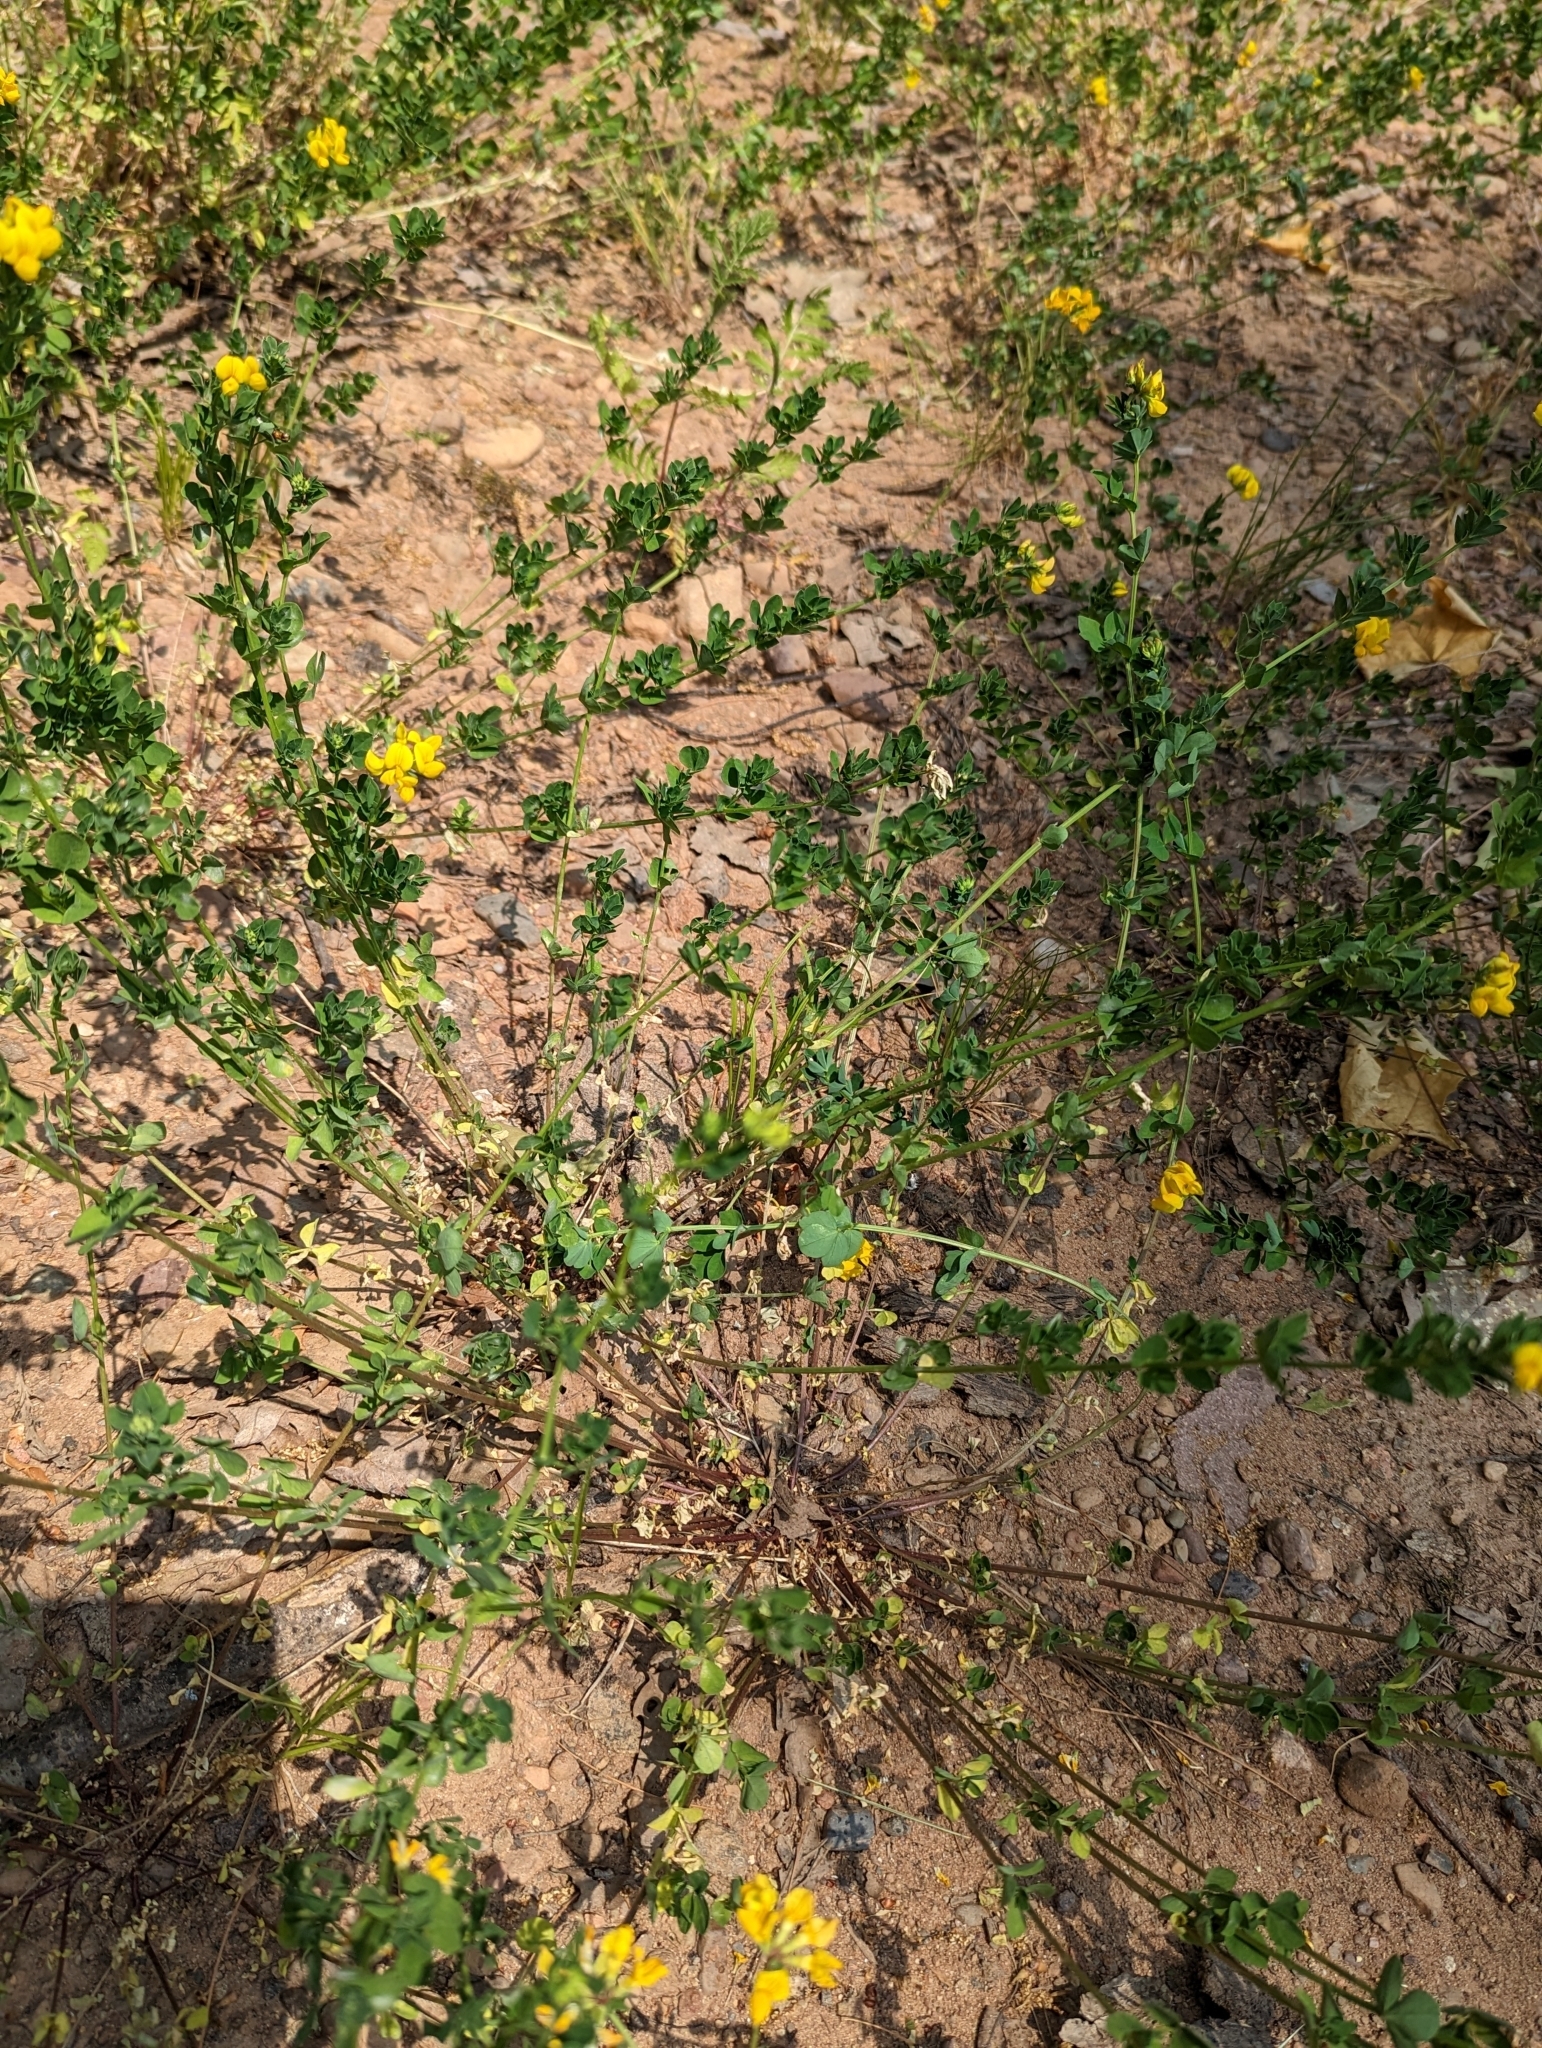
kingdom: Plantae
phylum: Tracheophyta
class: Magnoliopsida
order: Fabales
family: Fabaceae
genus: Lotus
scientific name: Lotus corniculatus
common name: Common bird's-foot-trefoil
